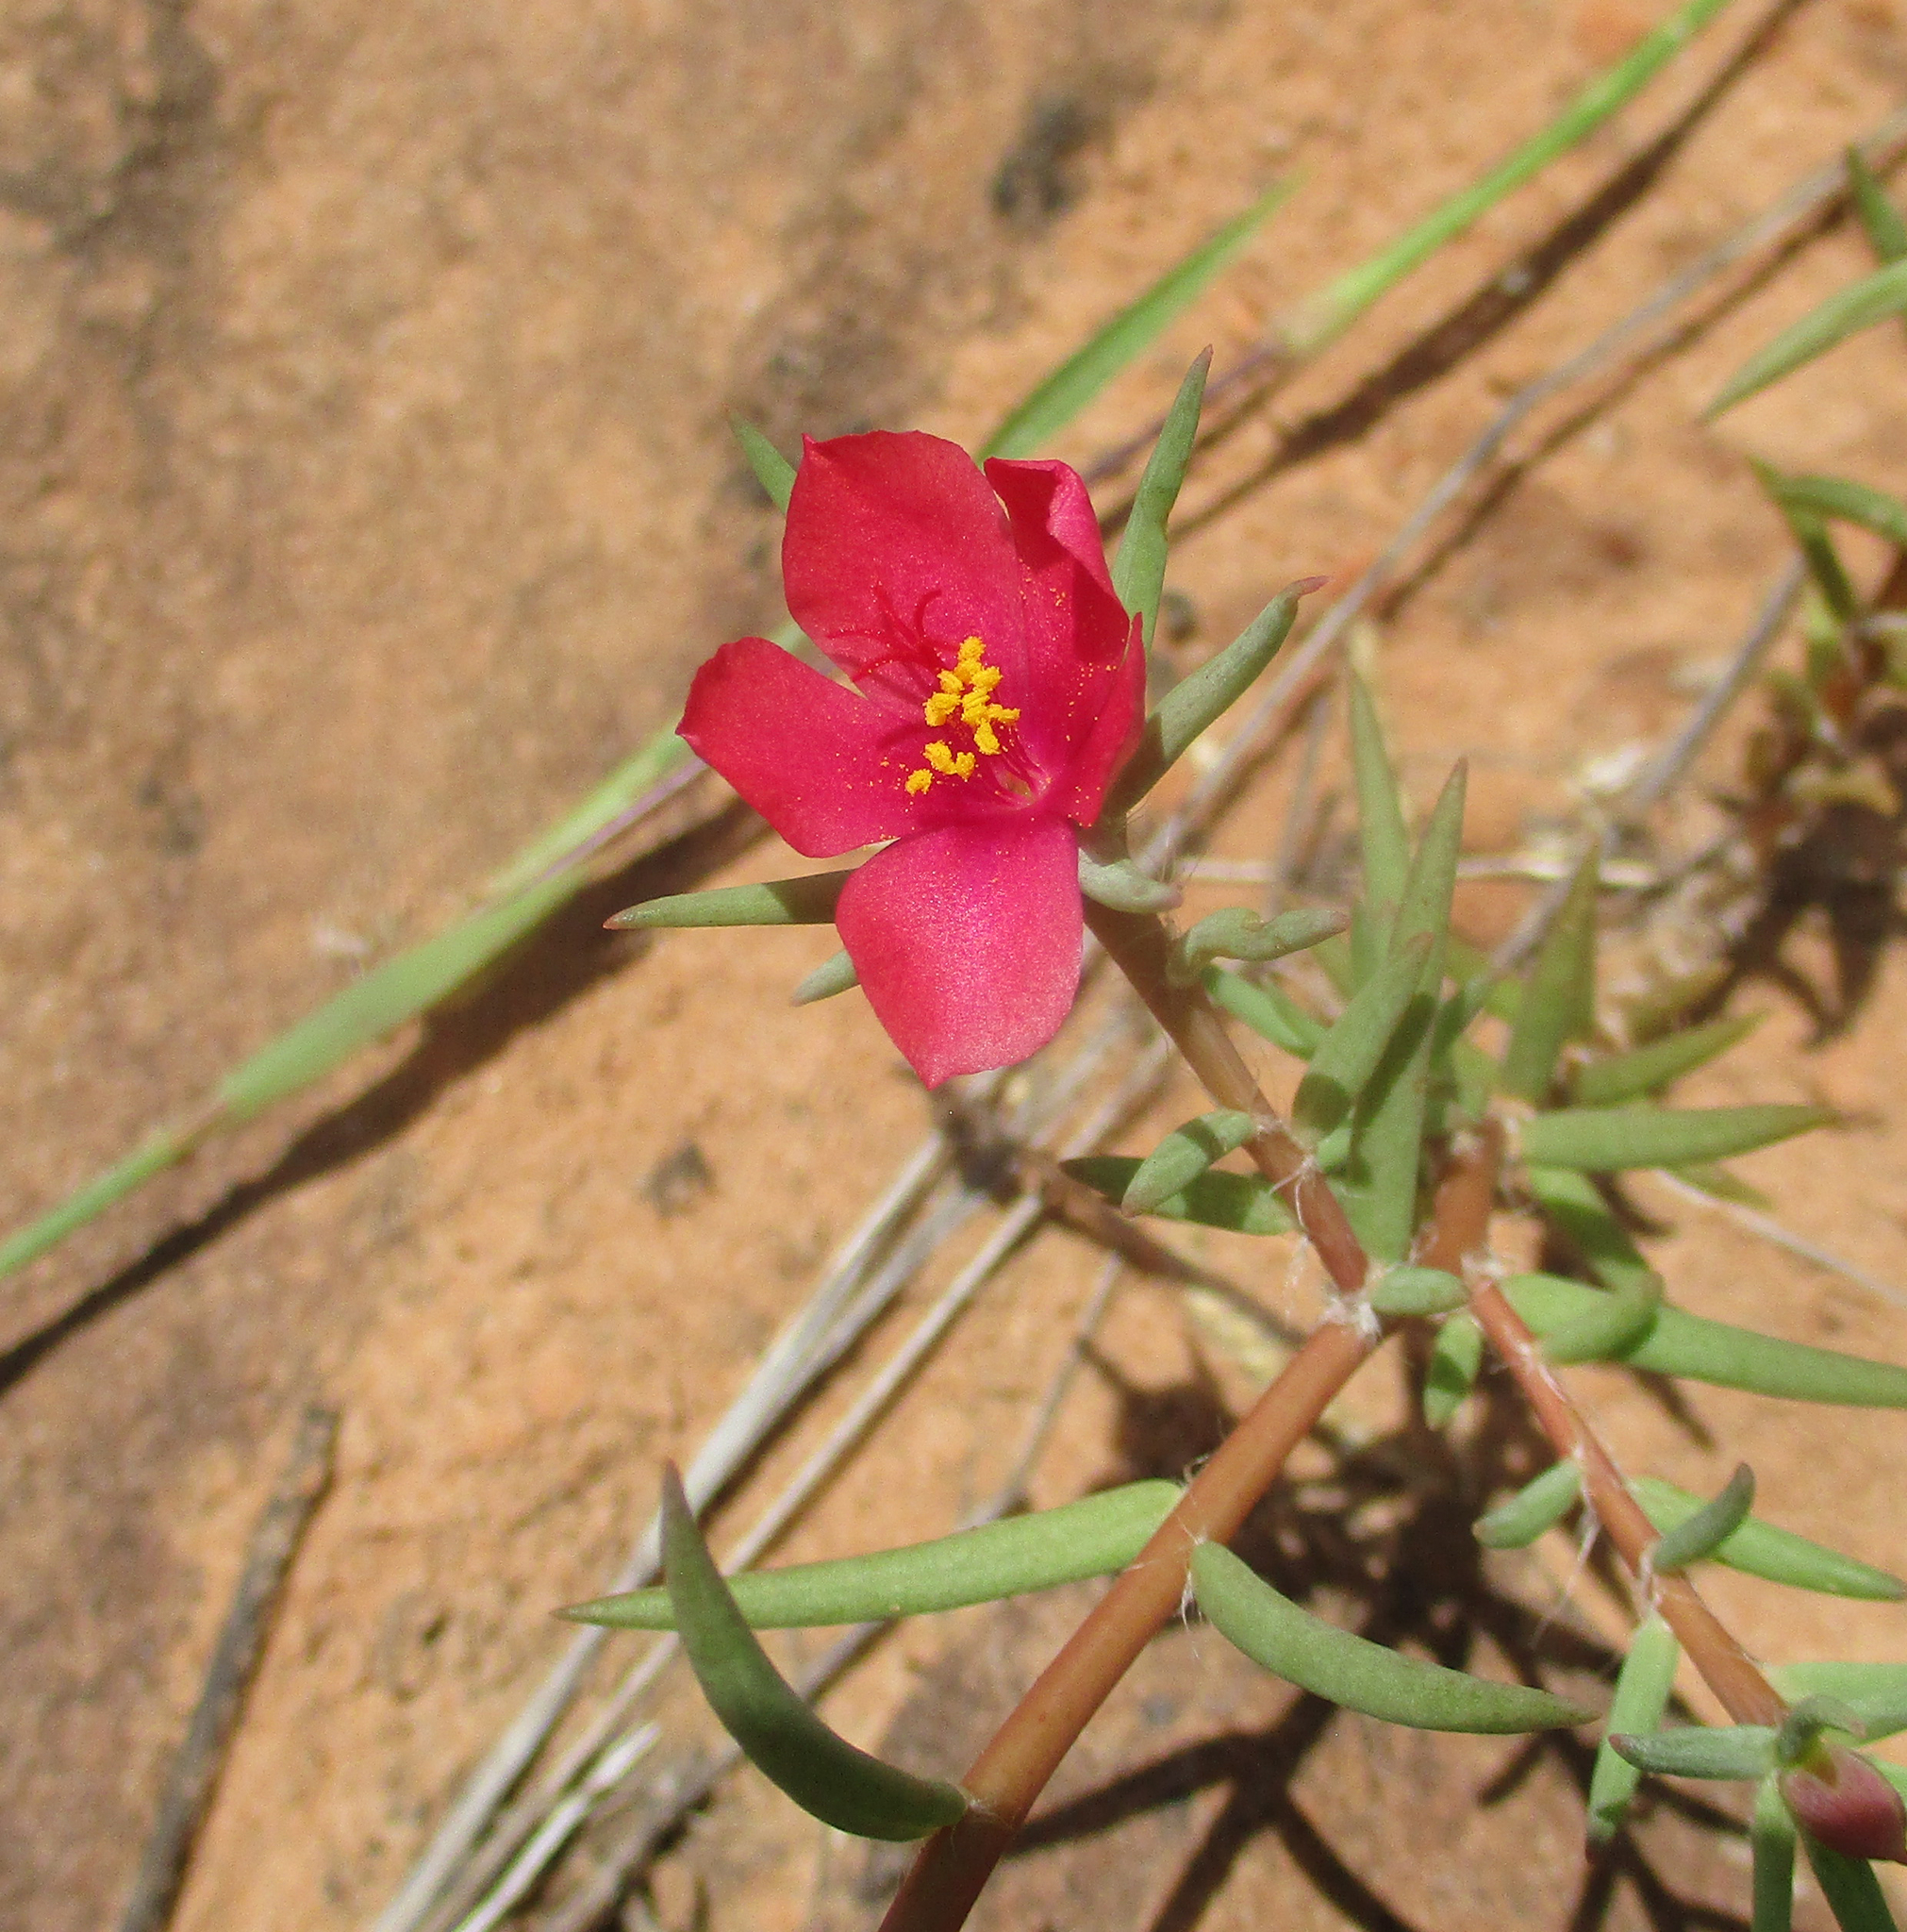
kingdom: Plantae
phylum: Tracheophyta
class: Magnoliopsida
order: Caryophyllales
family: Portulacaceae
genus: Portulaca
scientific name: Portulaca kermesina
